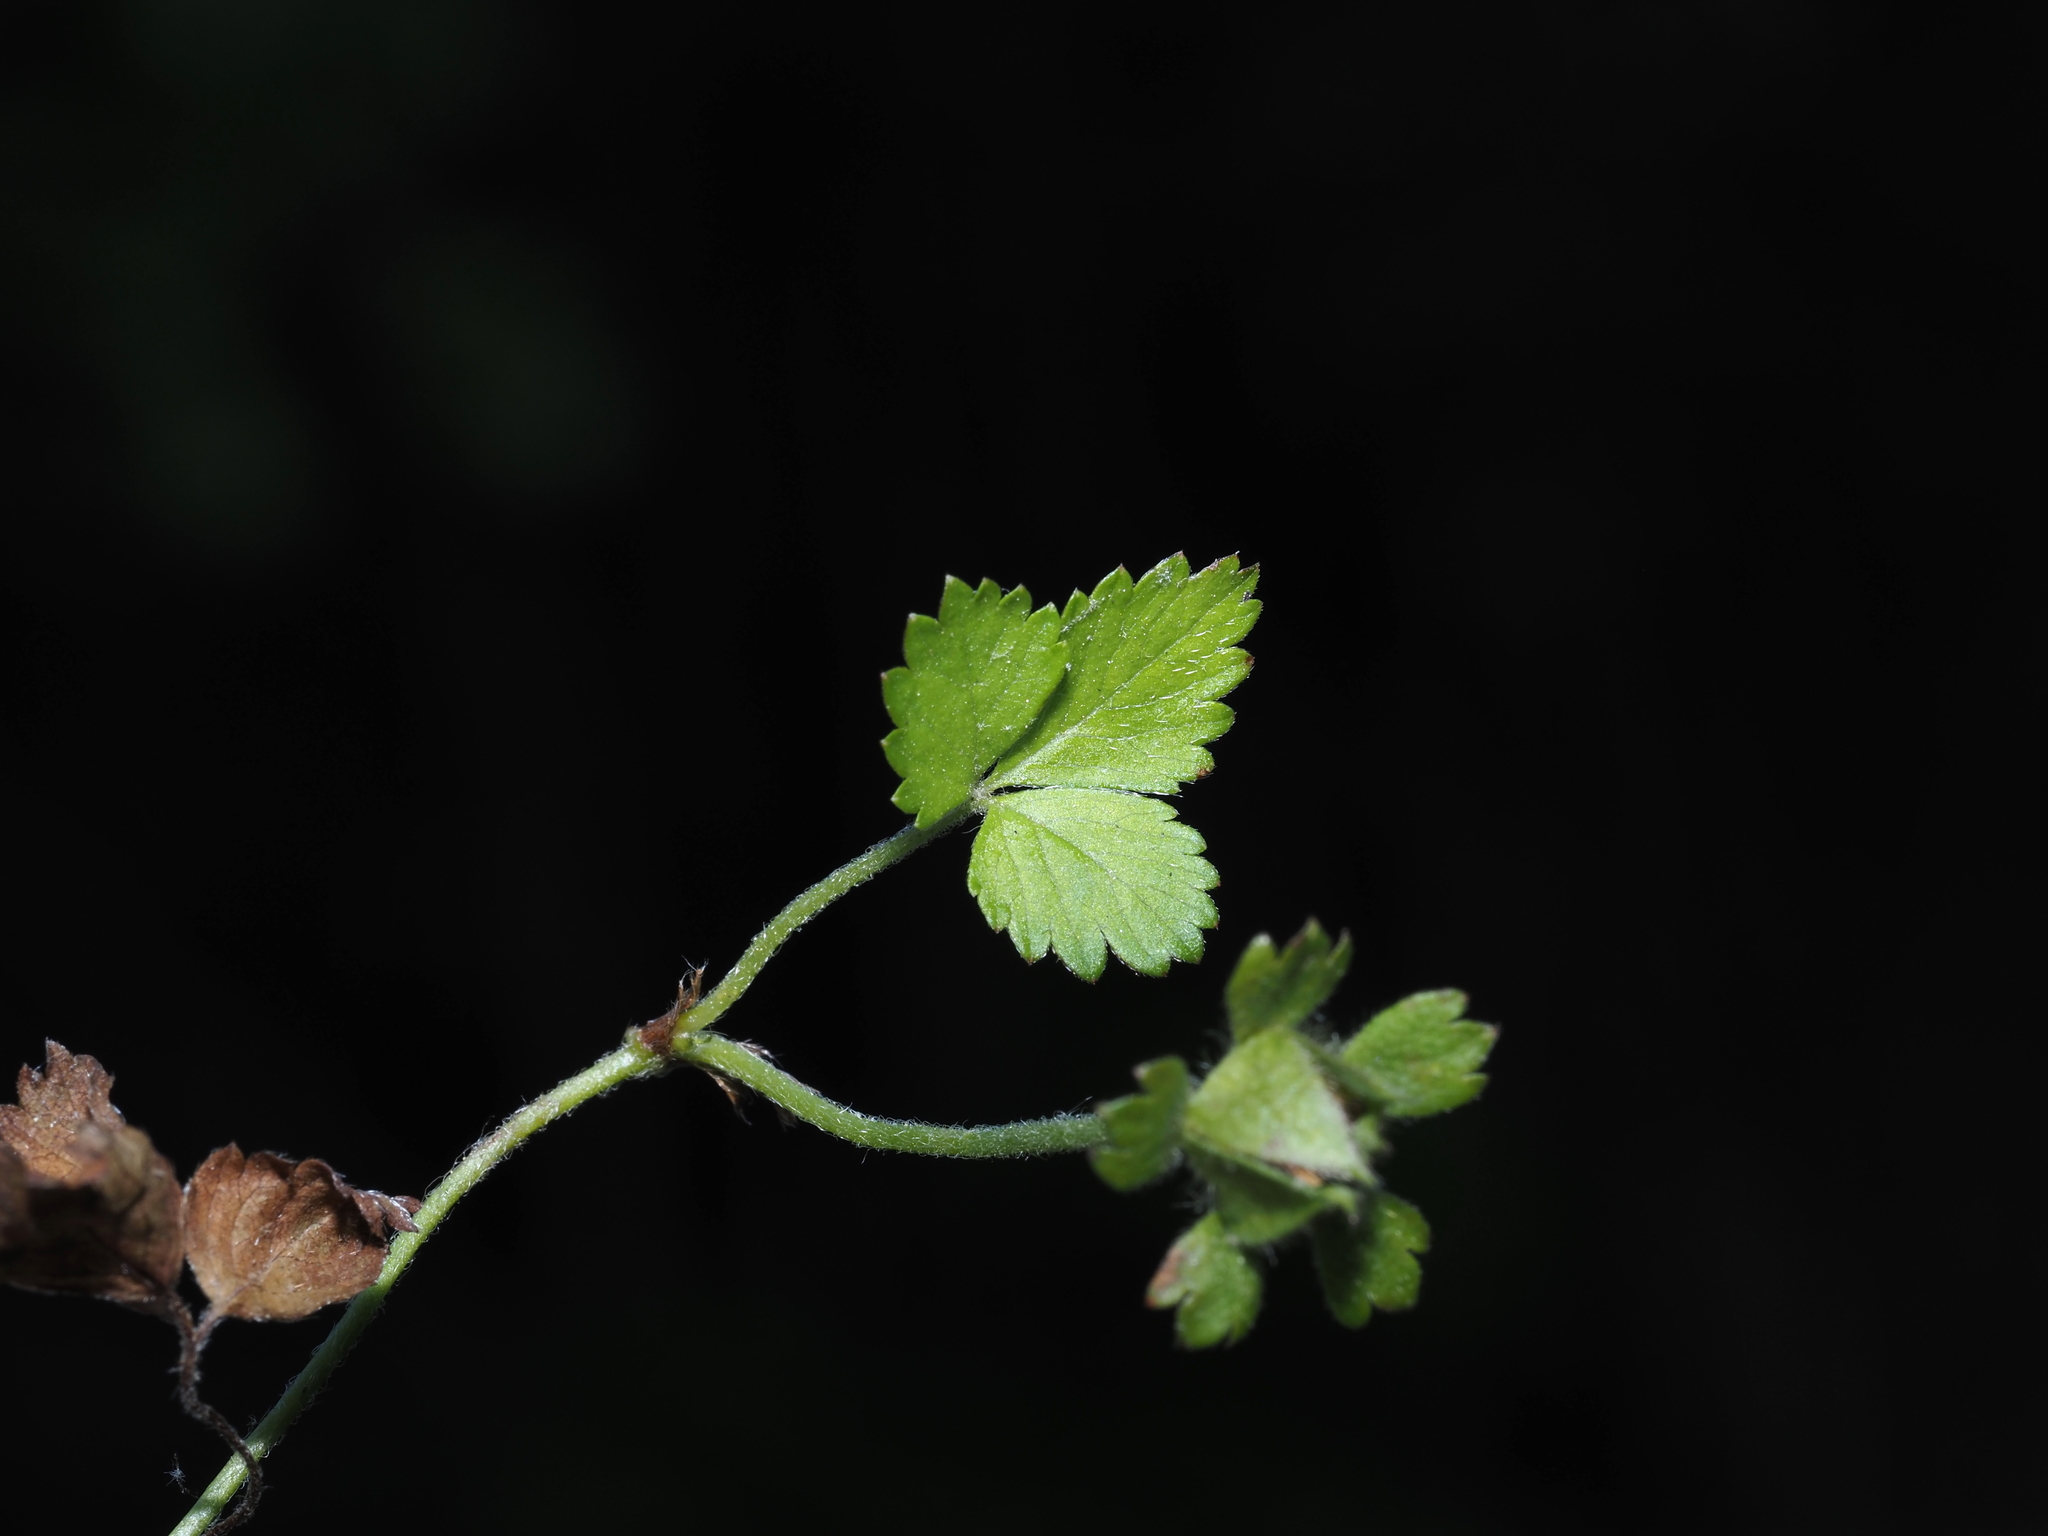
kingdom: Plantae
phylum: Tracheophyta
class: Magnoliopsida
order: Rosales
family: Rosaceae
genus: Potentilla
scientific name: Potentilla indica
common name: Yellow-flowered strawberry
